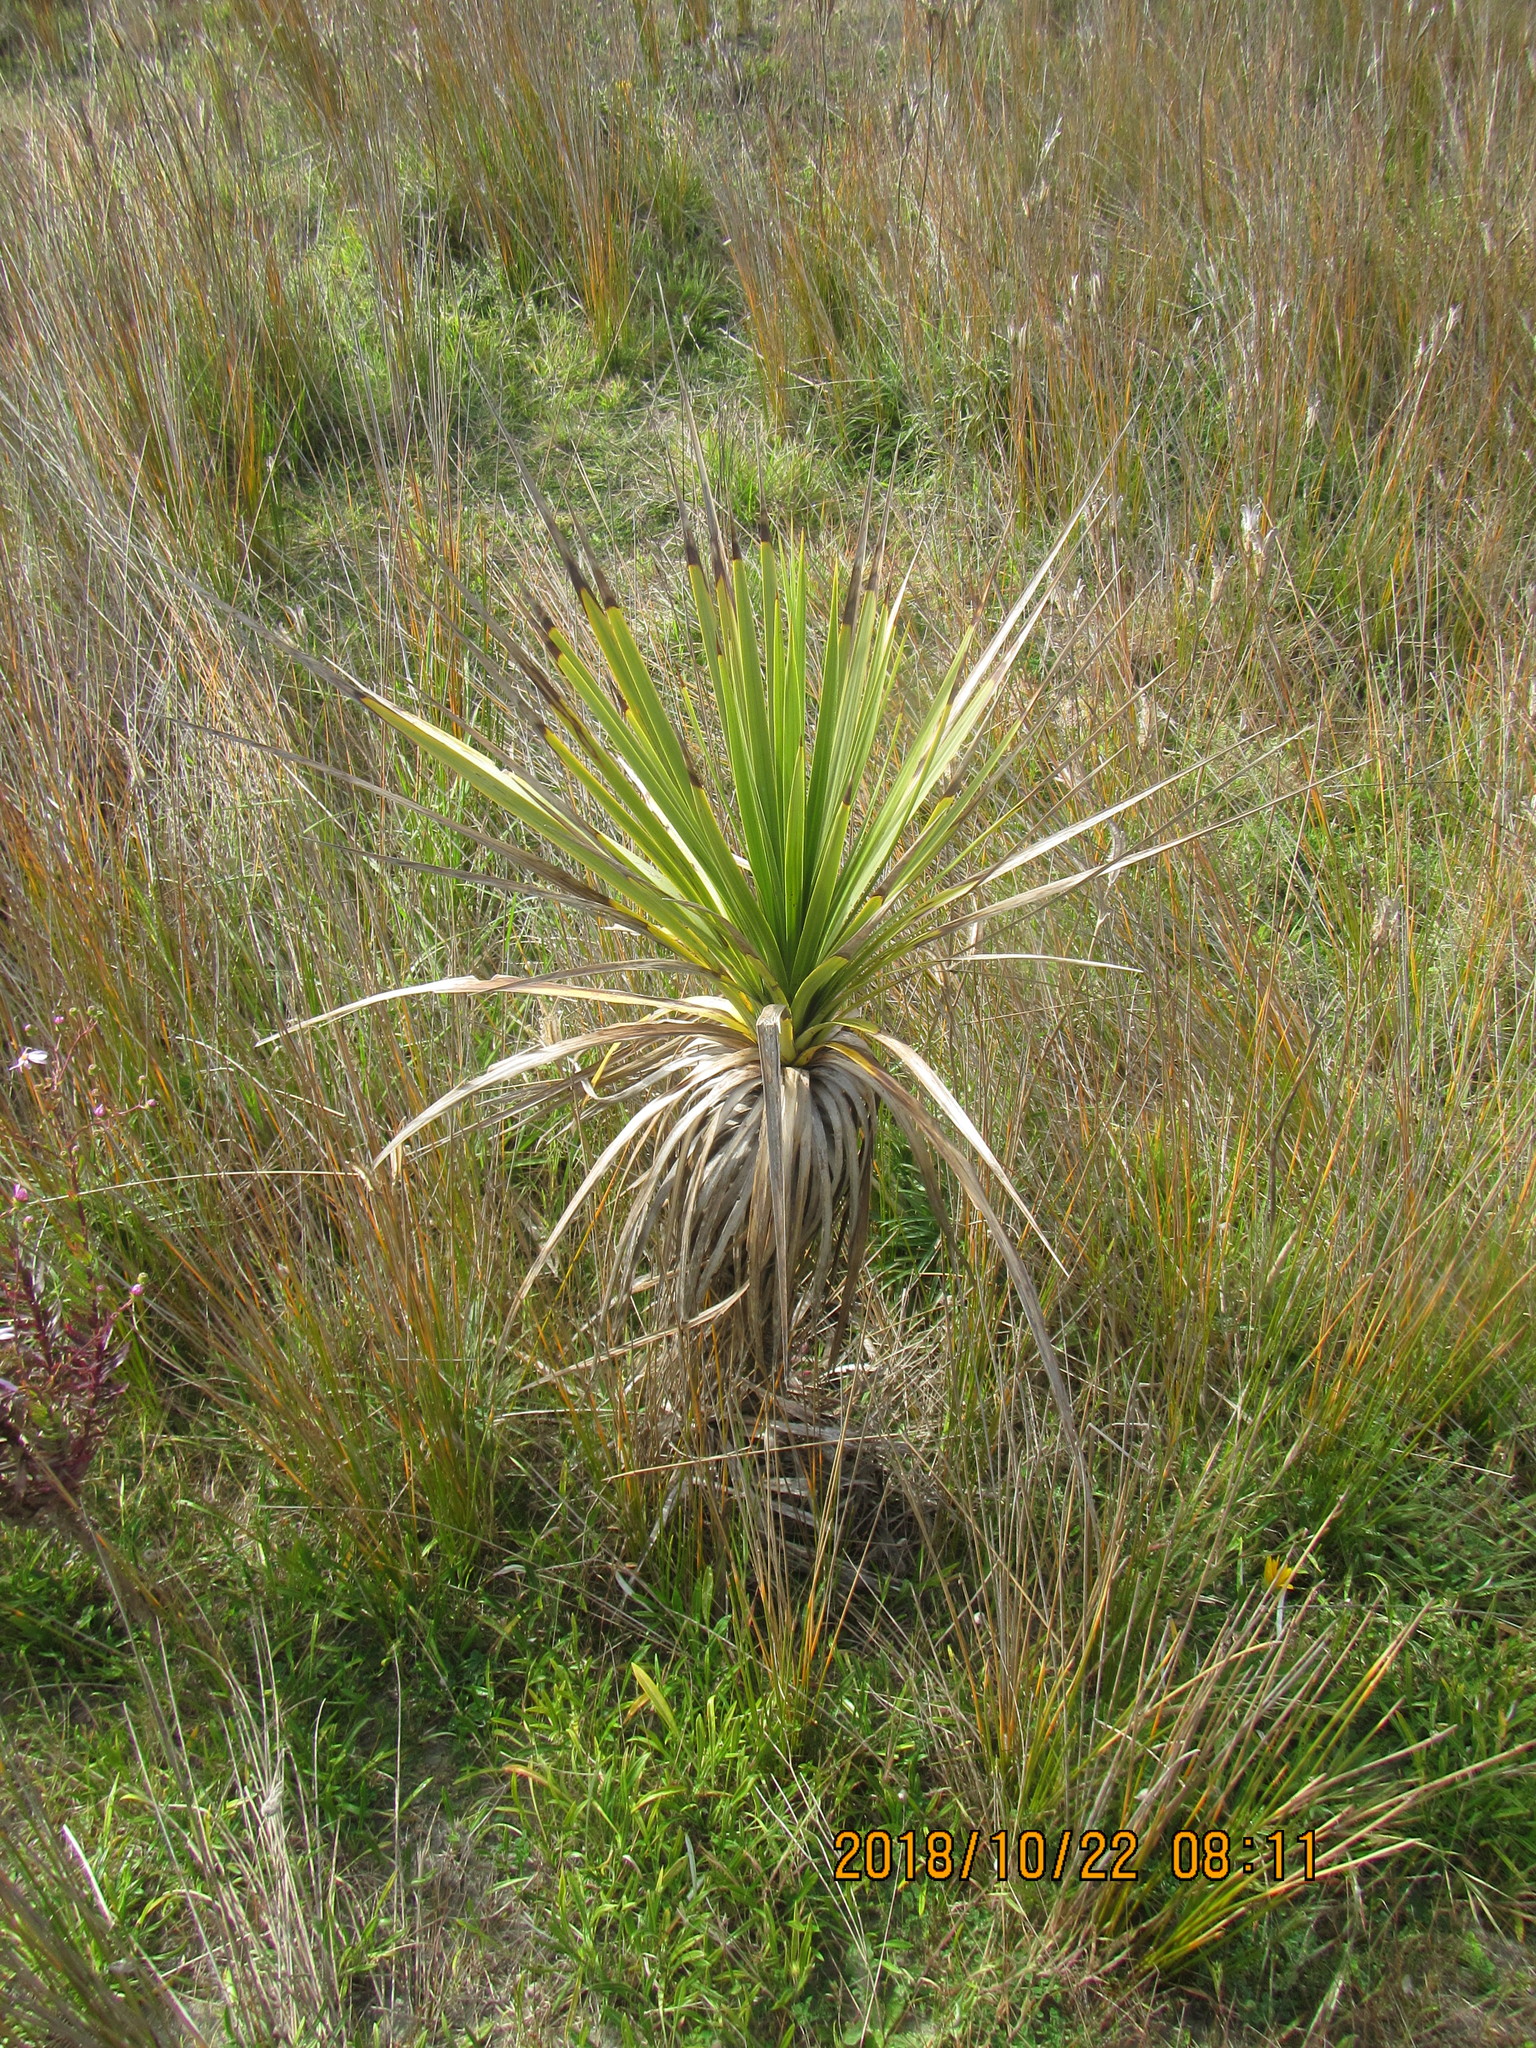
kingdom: Plantae
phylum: Tracheophyta
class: Liliopsida
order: Asparagales
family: Asparagaceae
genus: Cordyline
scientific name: Cordyline australis
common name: Cabbage-palm
